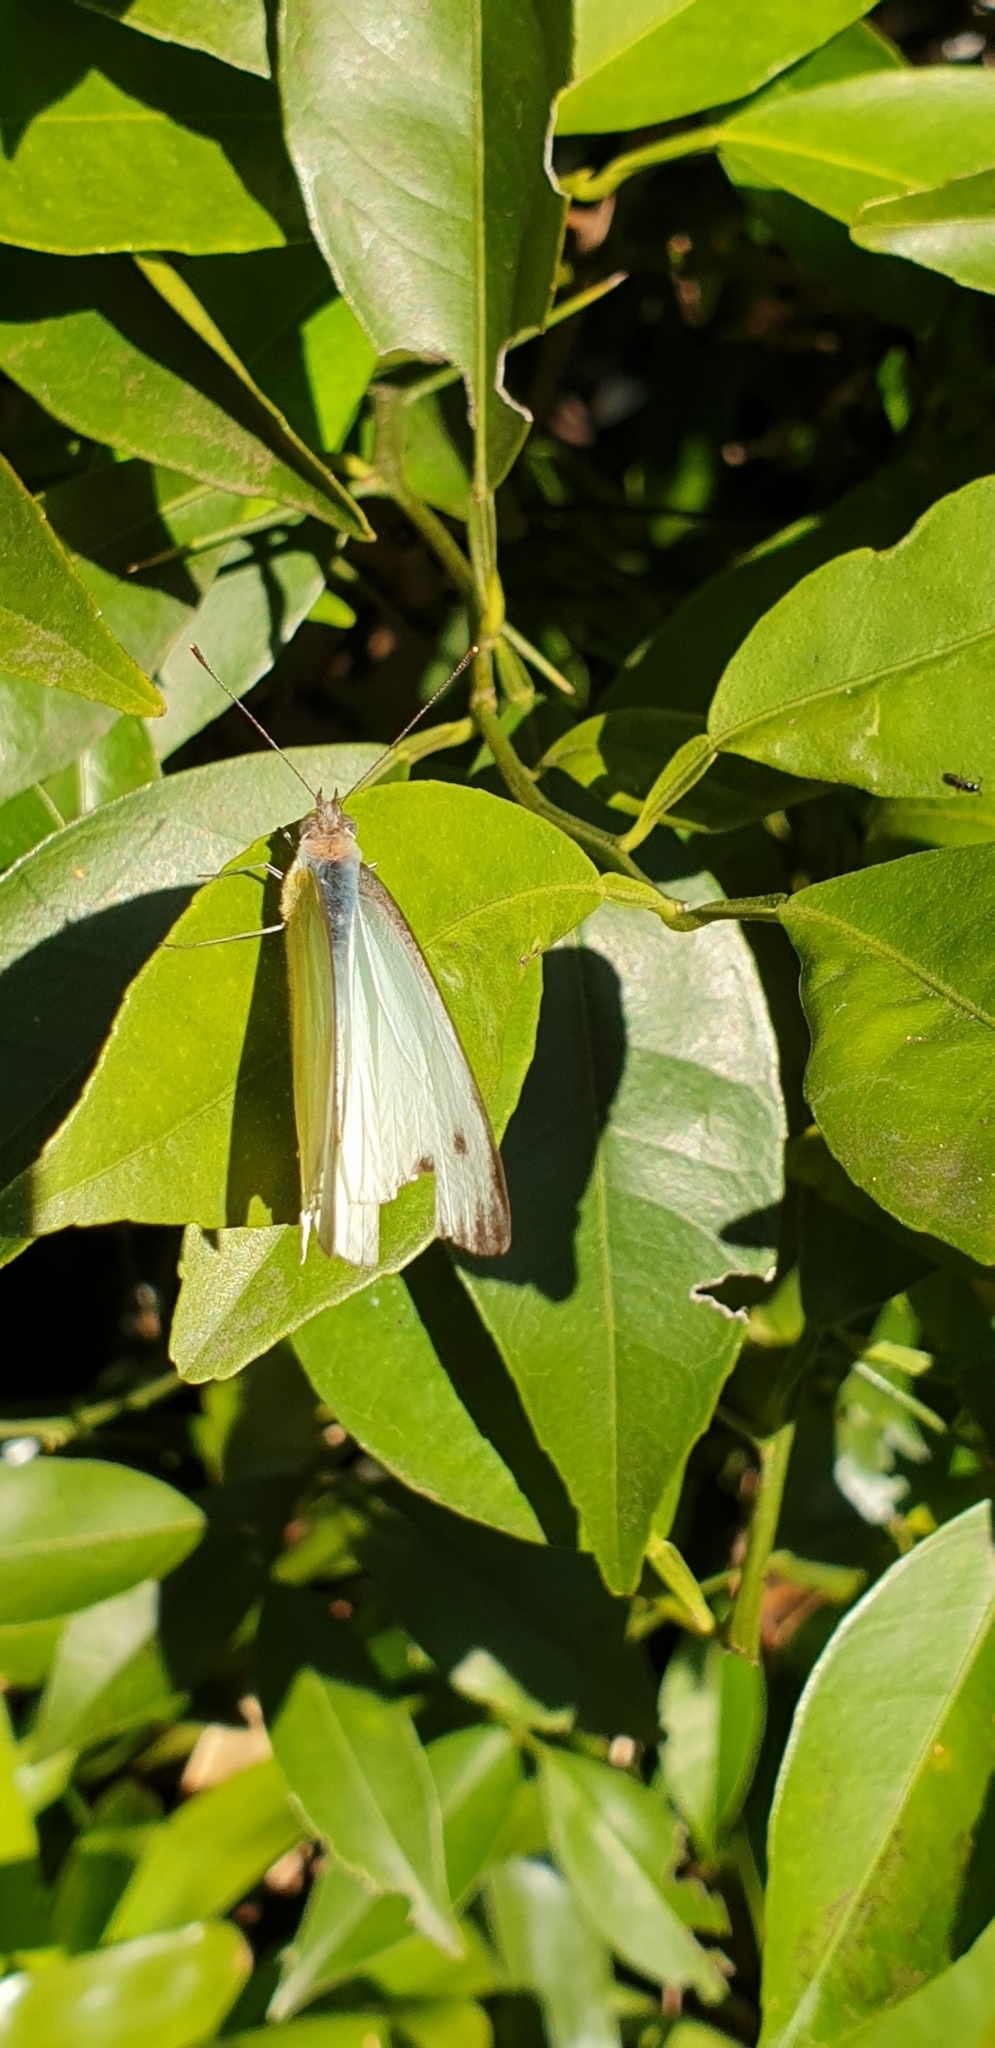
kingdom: Animalia
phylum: Arthropoda
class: Insecta
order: Lepidoptera
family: Pieridae
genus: Appias
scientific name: Appias paulina
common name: Ceylon lesser albatross
